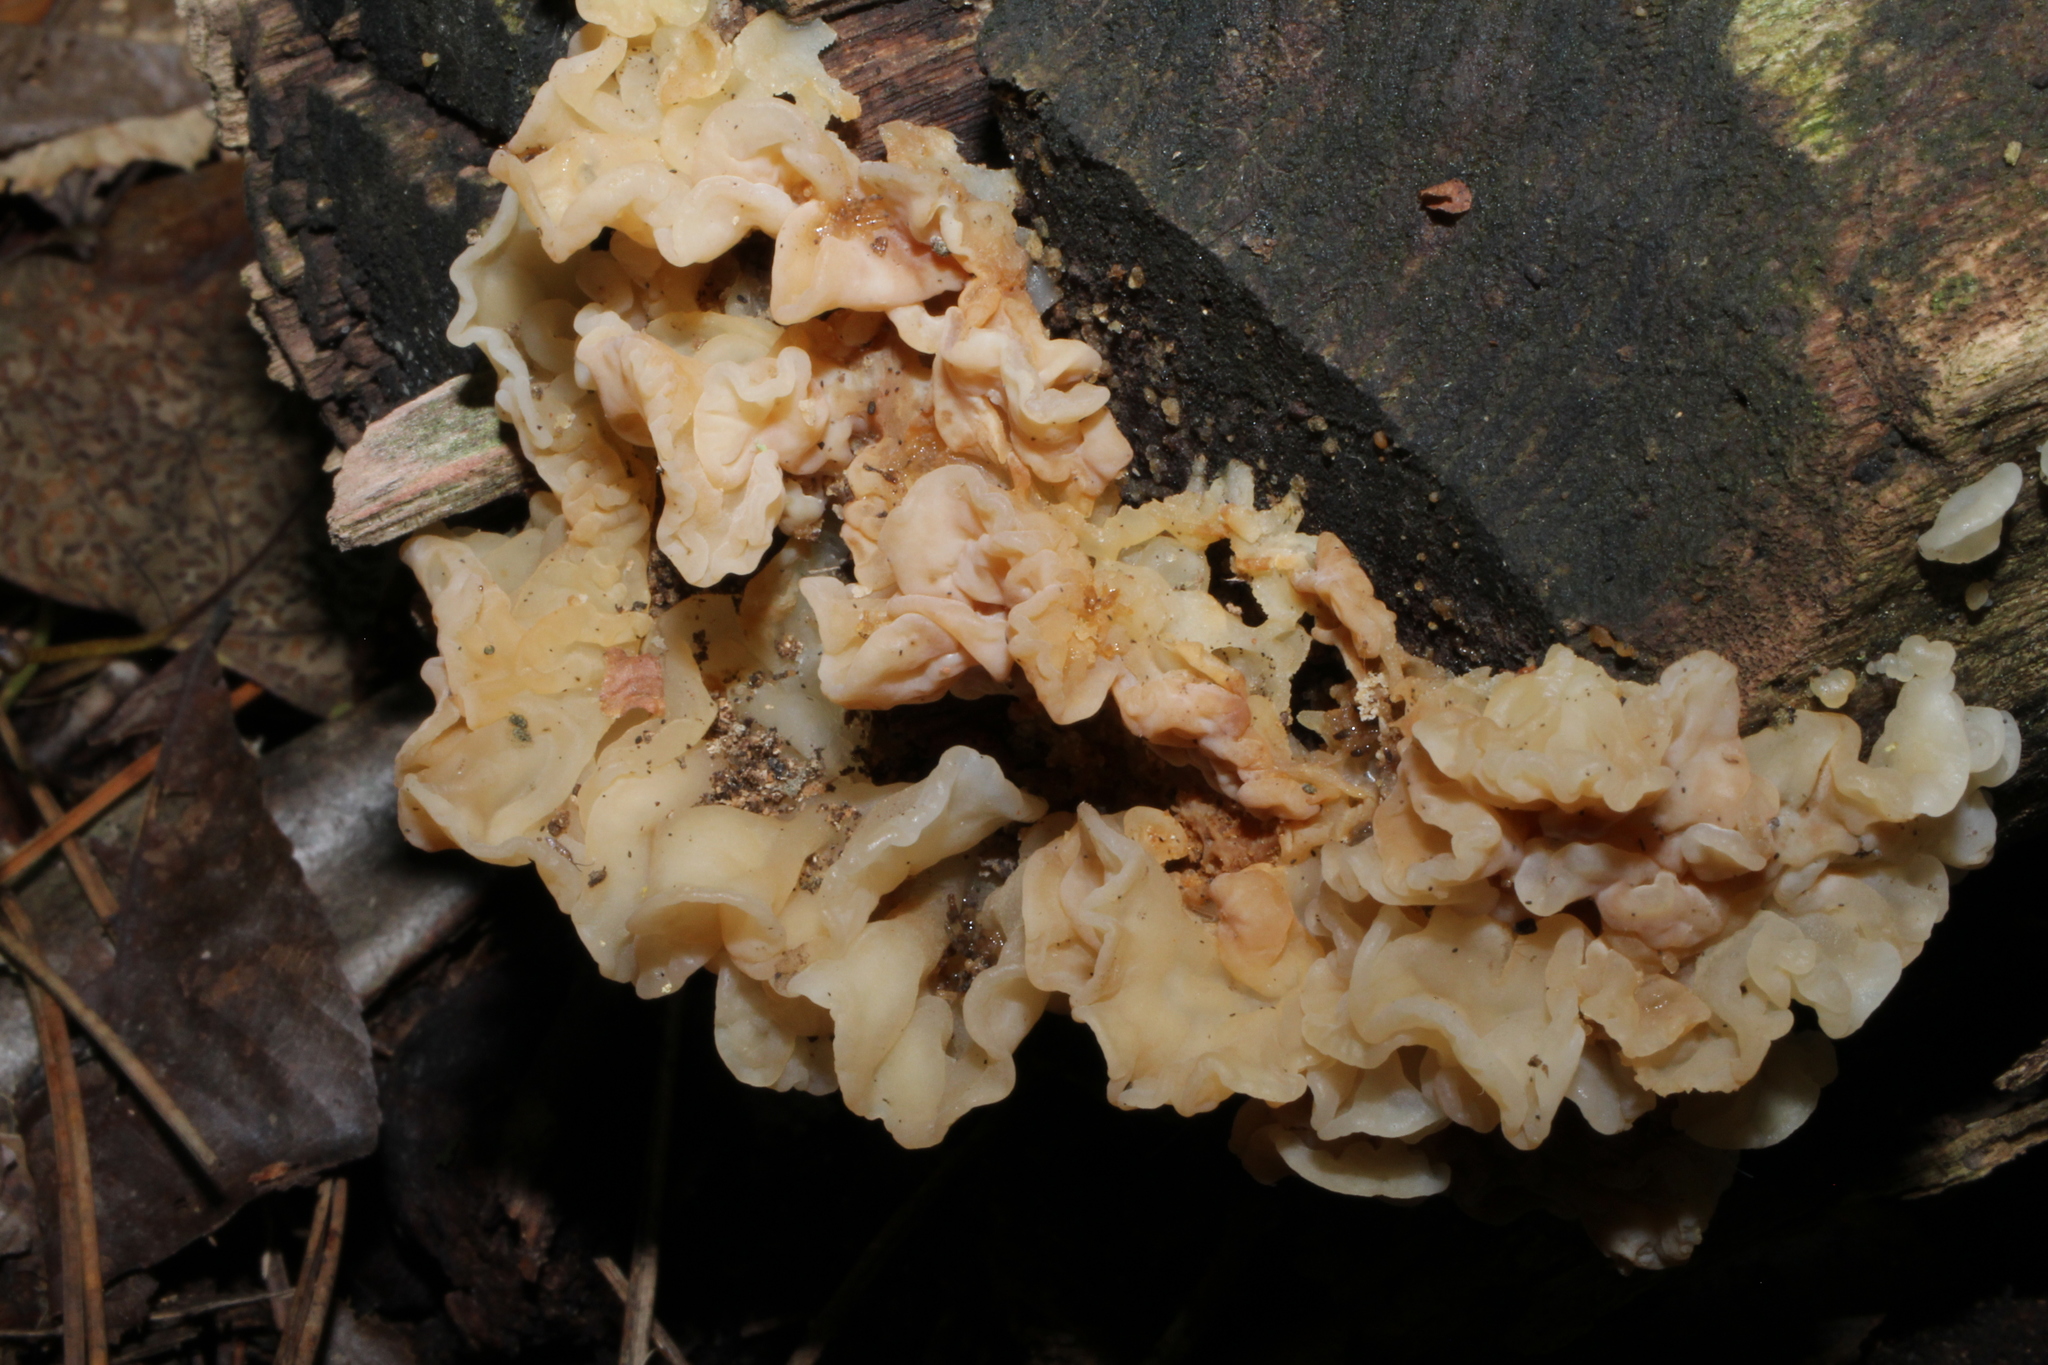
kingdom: Fungi
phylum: Basidiomycota
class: Agaricomycetes
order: Auriculariales
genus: Ductifera
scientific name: Ductifera pululahuana
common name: White jelly fungus
